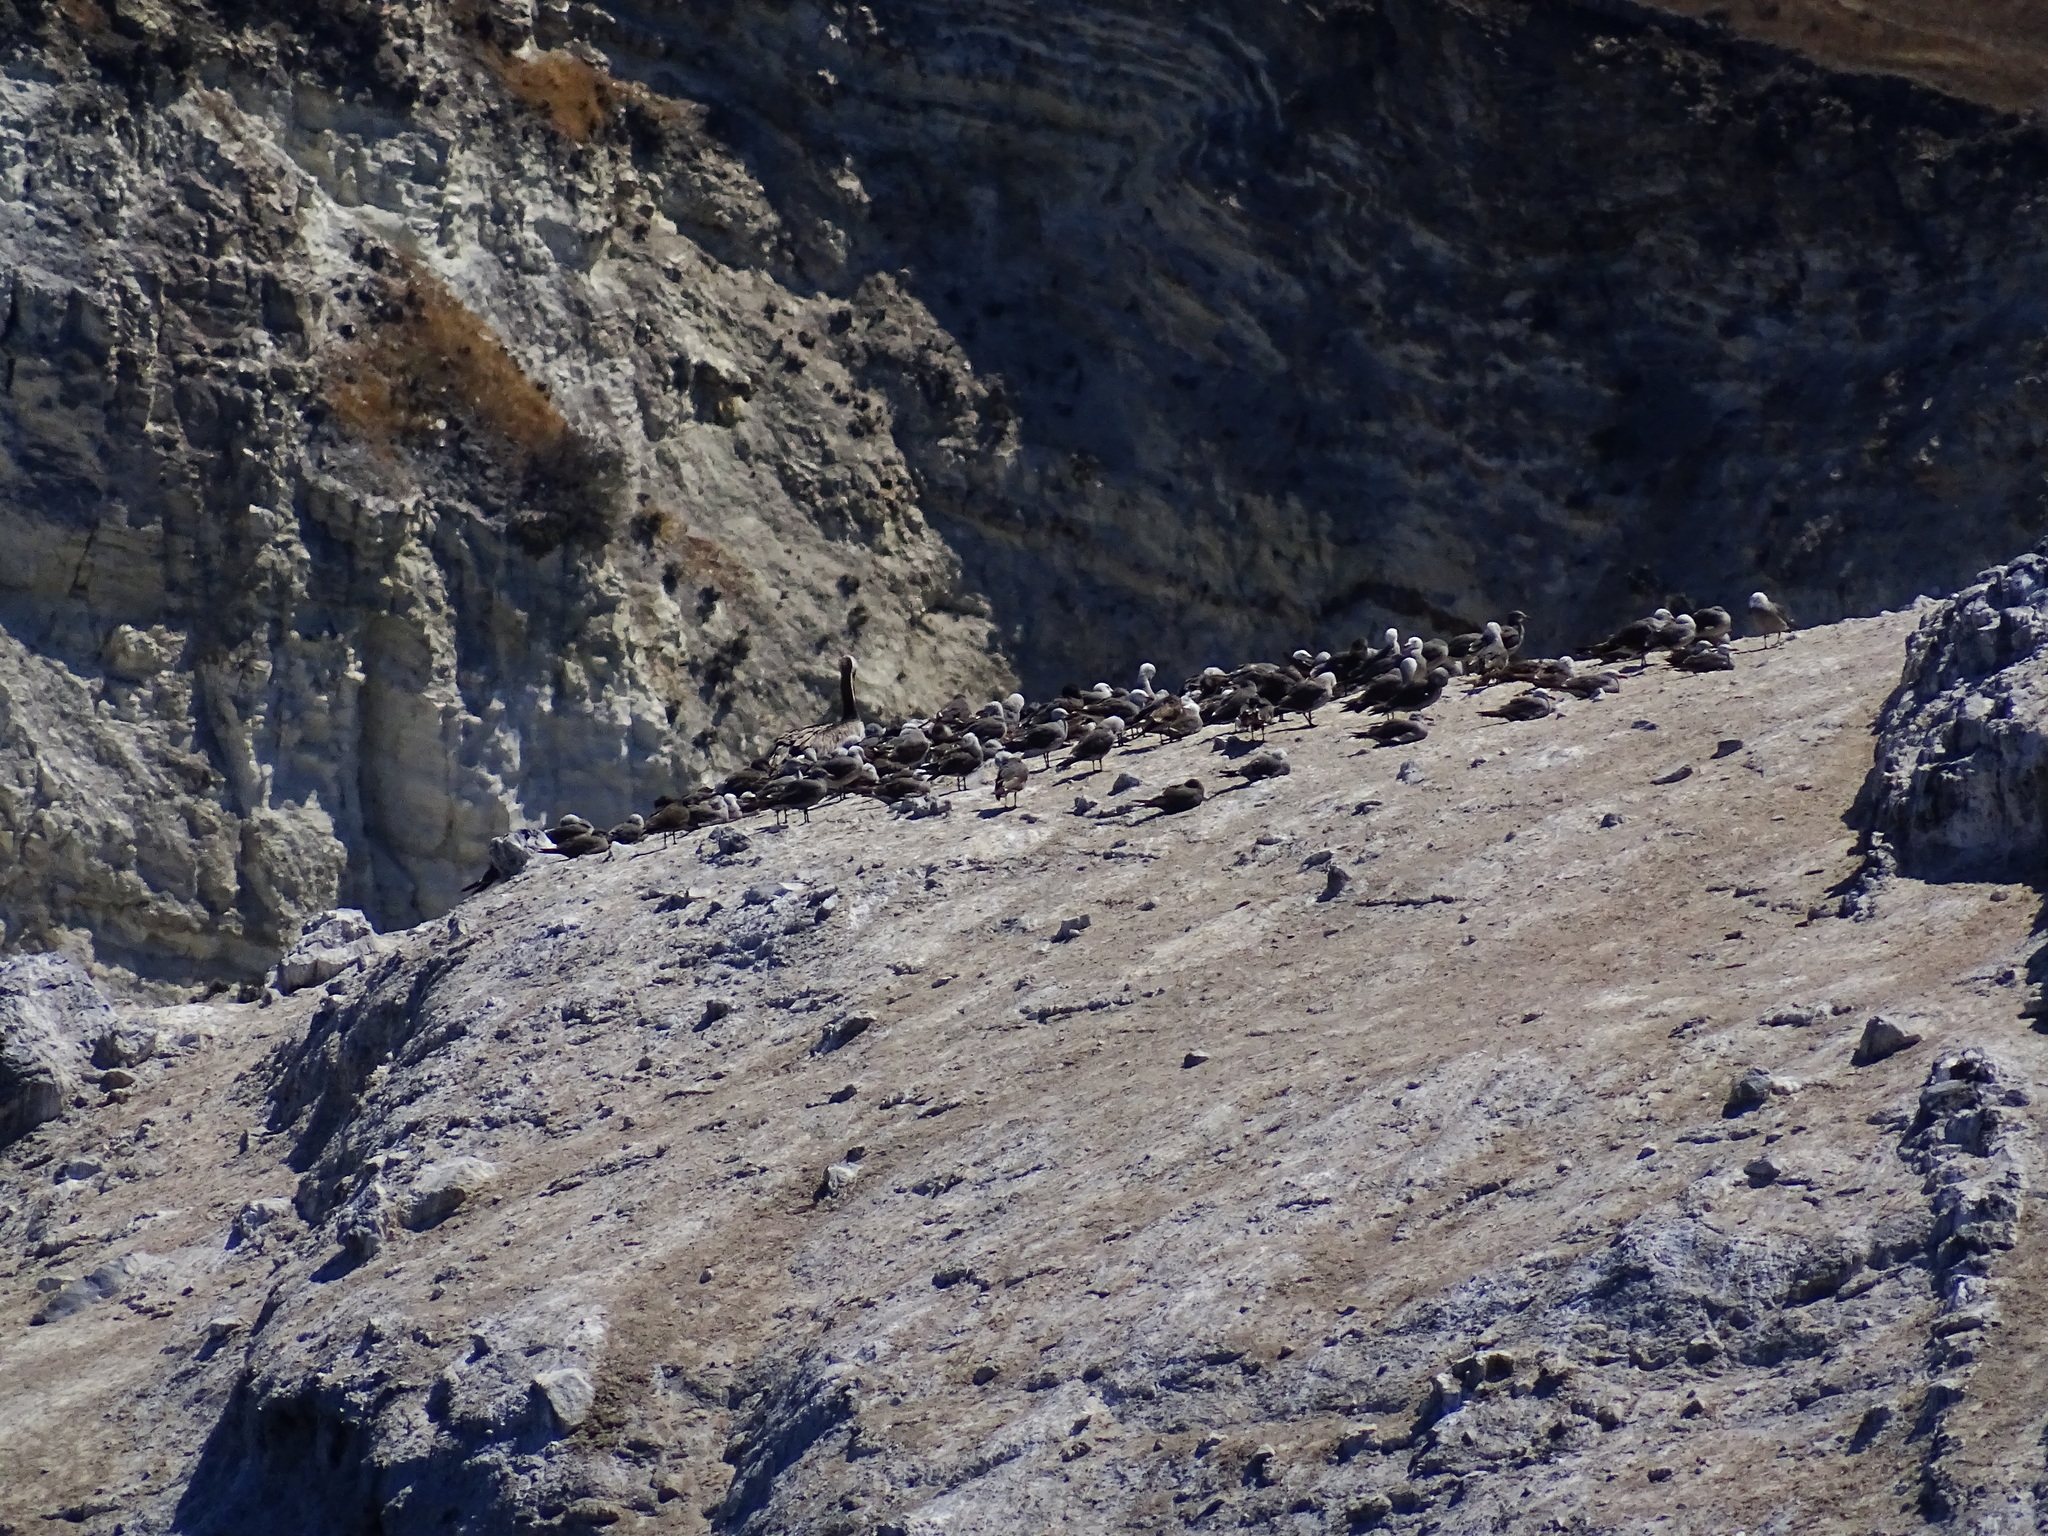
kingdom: Animalia
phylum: Chordata
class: Aves
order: Pelecaniformes
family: Pelecanidae
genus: Pelecanus
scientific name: Pelecanus occidentalis
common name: Brown pelican
